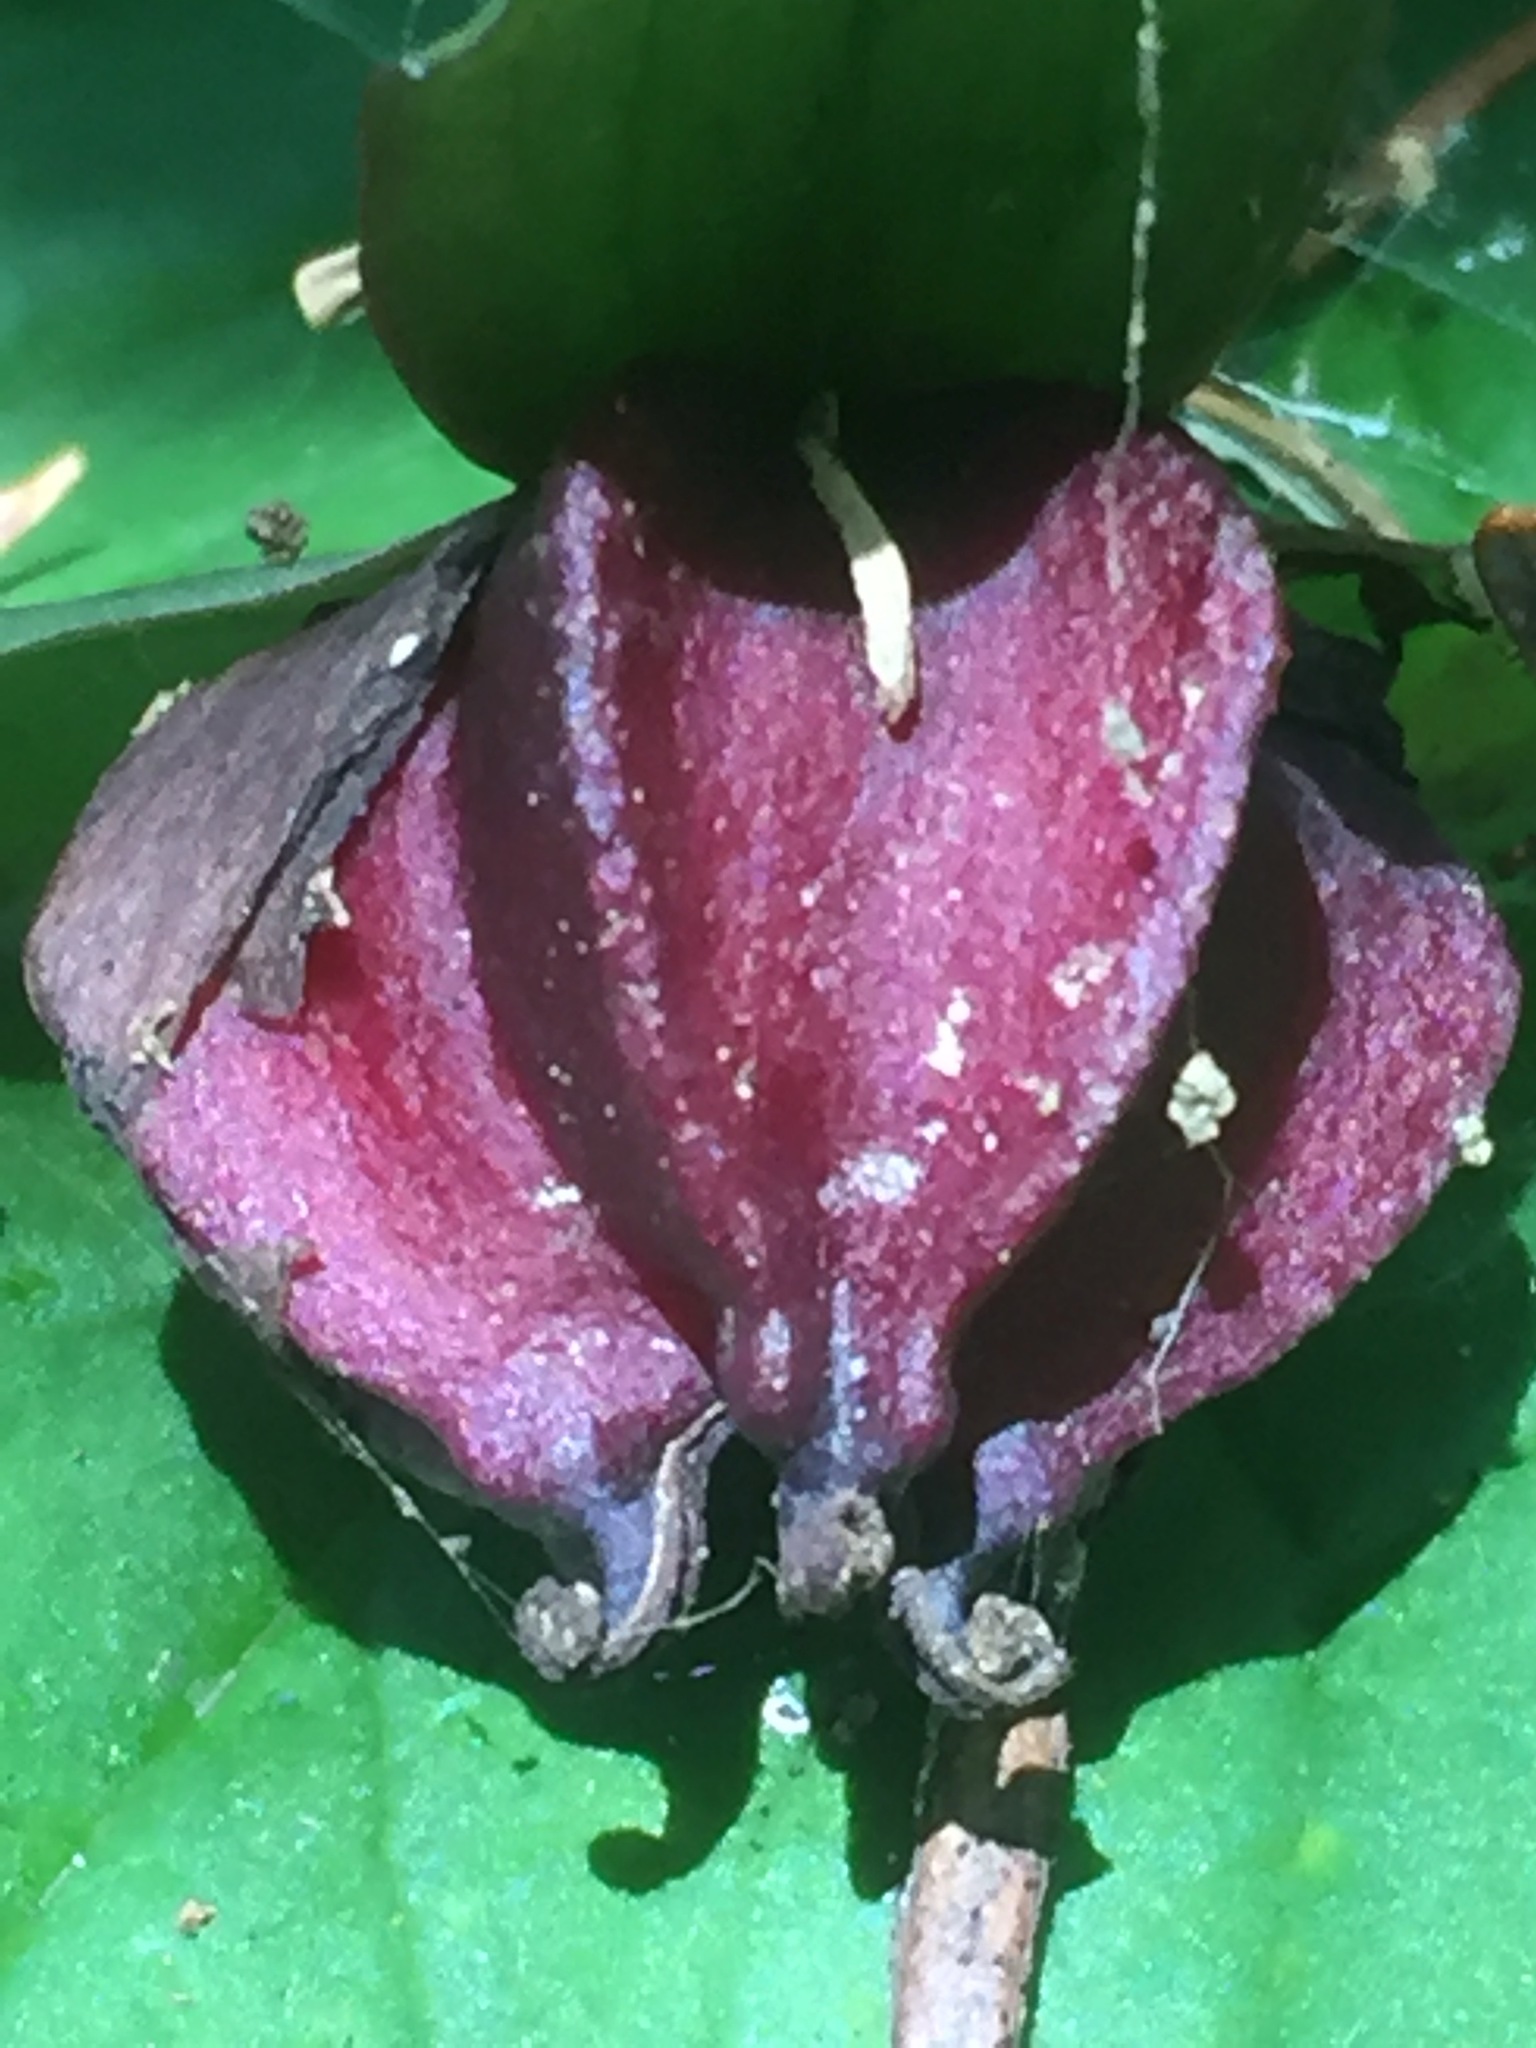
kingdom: Plantae
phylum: Tracheophyta
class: Liliopsida
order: Liliales
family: Melanthiaceae
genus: Trillium
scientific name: Trillium erectum
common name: Purple trillium
